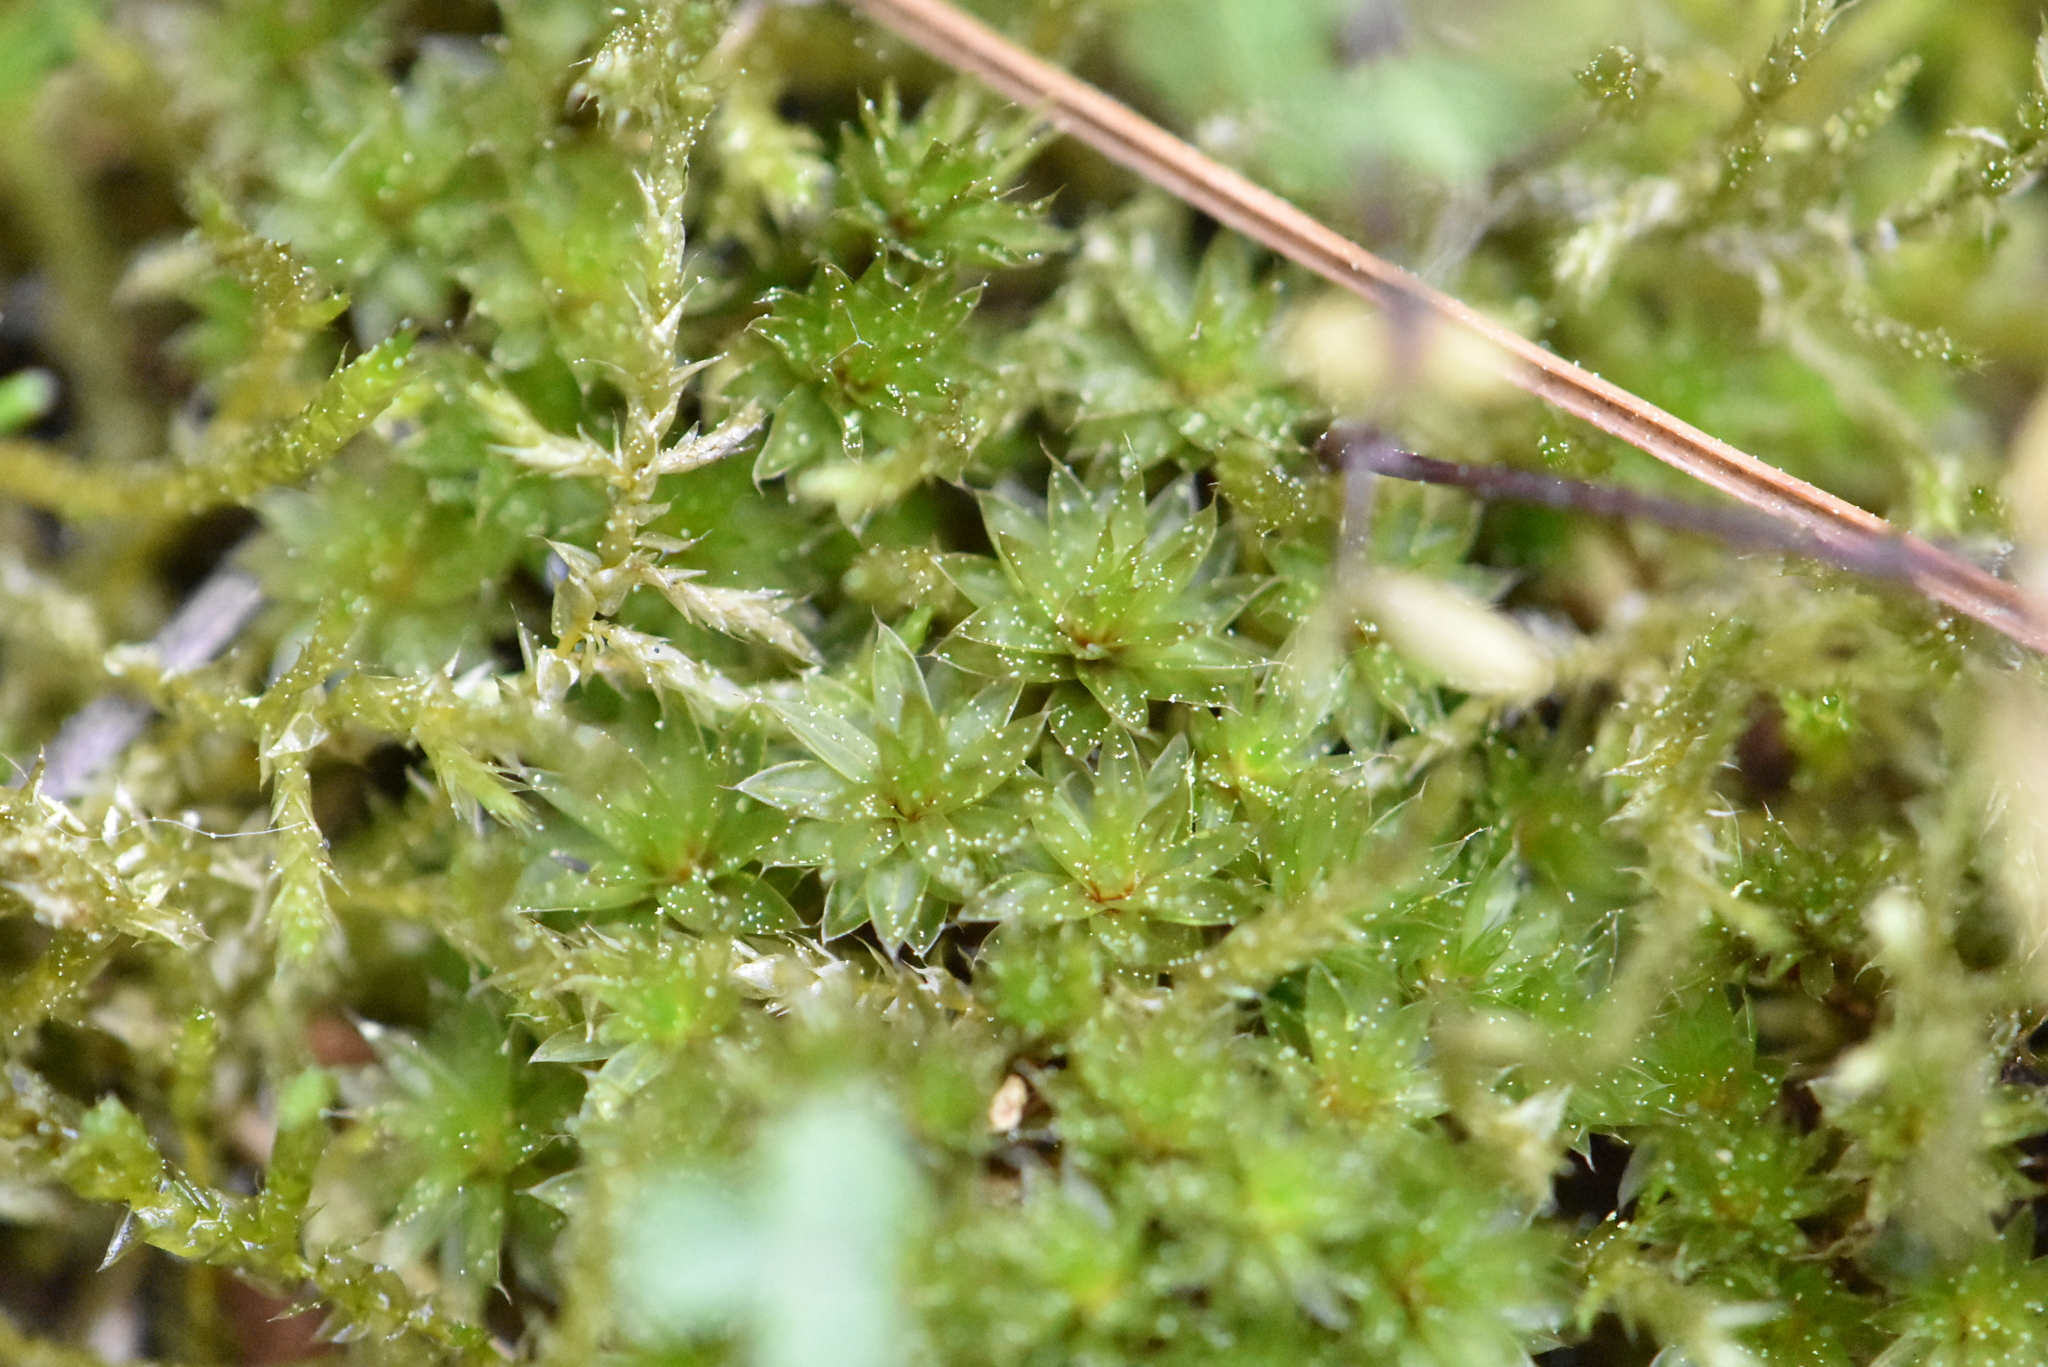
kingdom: Plantae
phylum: Bryophyta
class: Bryopsida
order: Bryales
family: Bryaceae
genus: Rhodobryum
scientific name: Rhodobryum roseum
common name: Rose-moss
